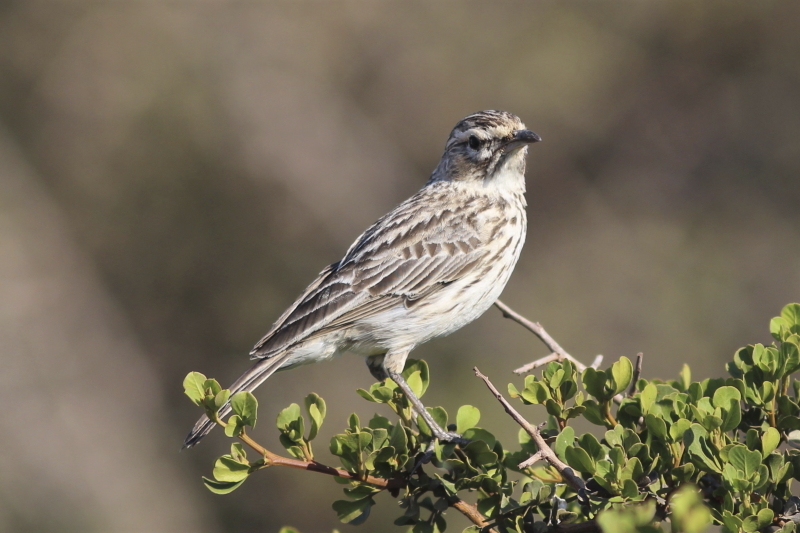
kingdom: Animalia
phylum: Chordata
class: Aves
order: Passeriformes
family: Alaudidae
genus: Calendulauda
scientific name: Calendulauda albescens
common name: Karoo lark
